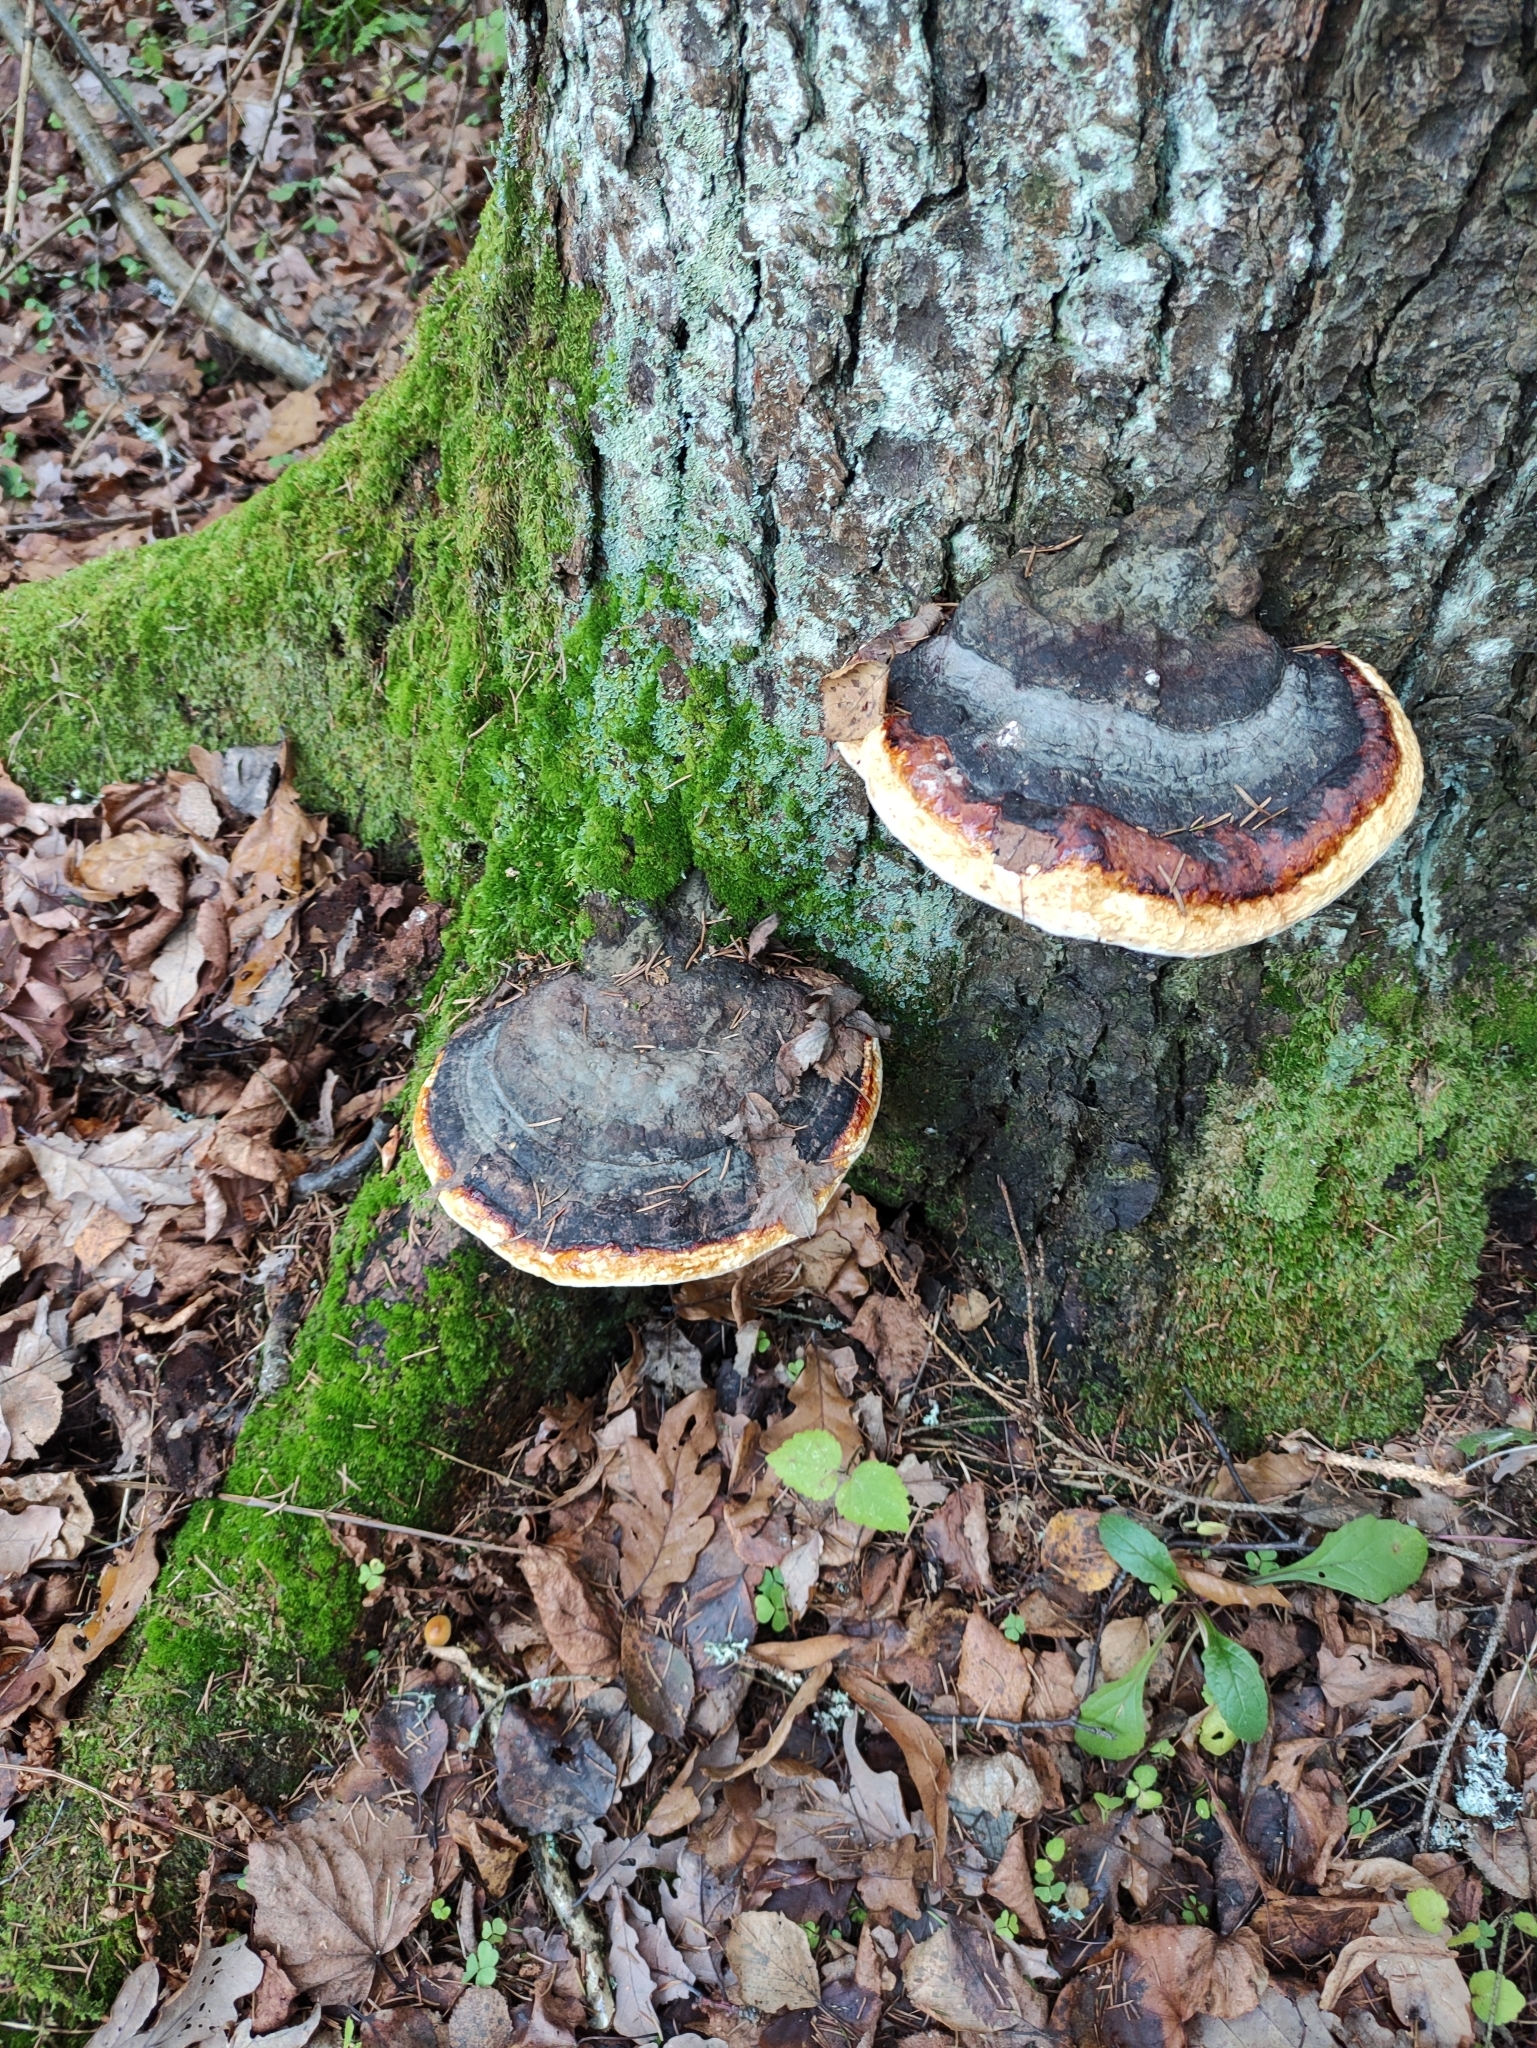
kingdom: Fungi
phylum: Basidiomycota
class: Agaricomycetes
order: Polyporales
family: Fomitopsidaceae
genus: Fomitopsis
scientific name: Fomitopsis pinicola
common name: Red-belted bracket
